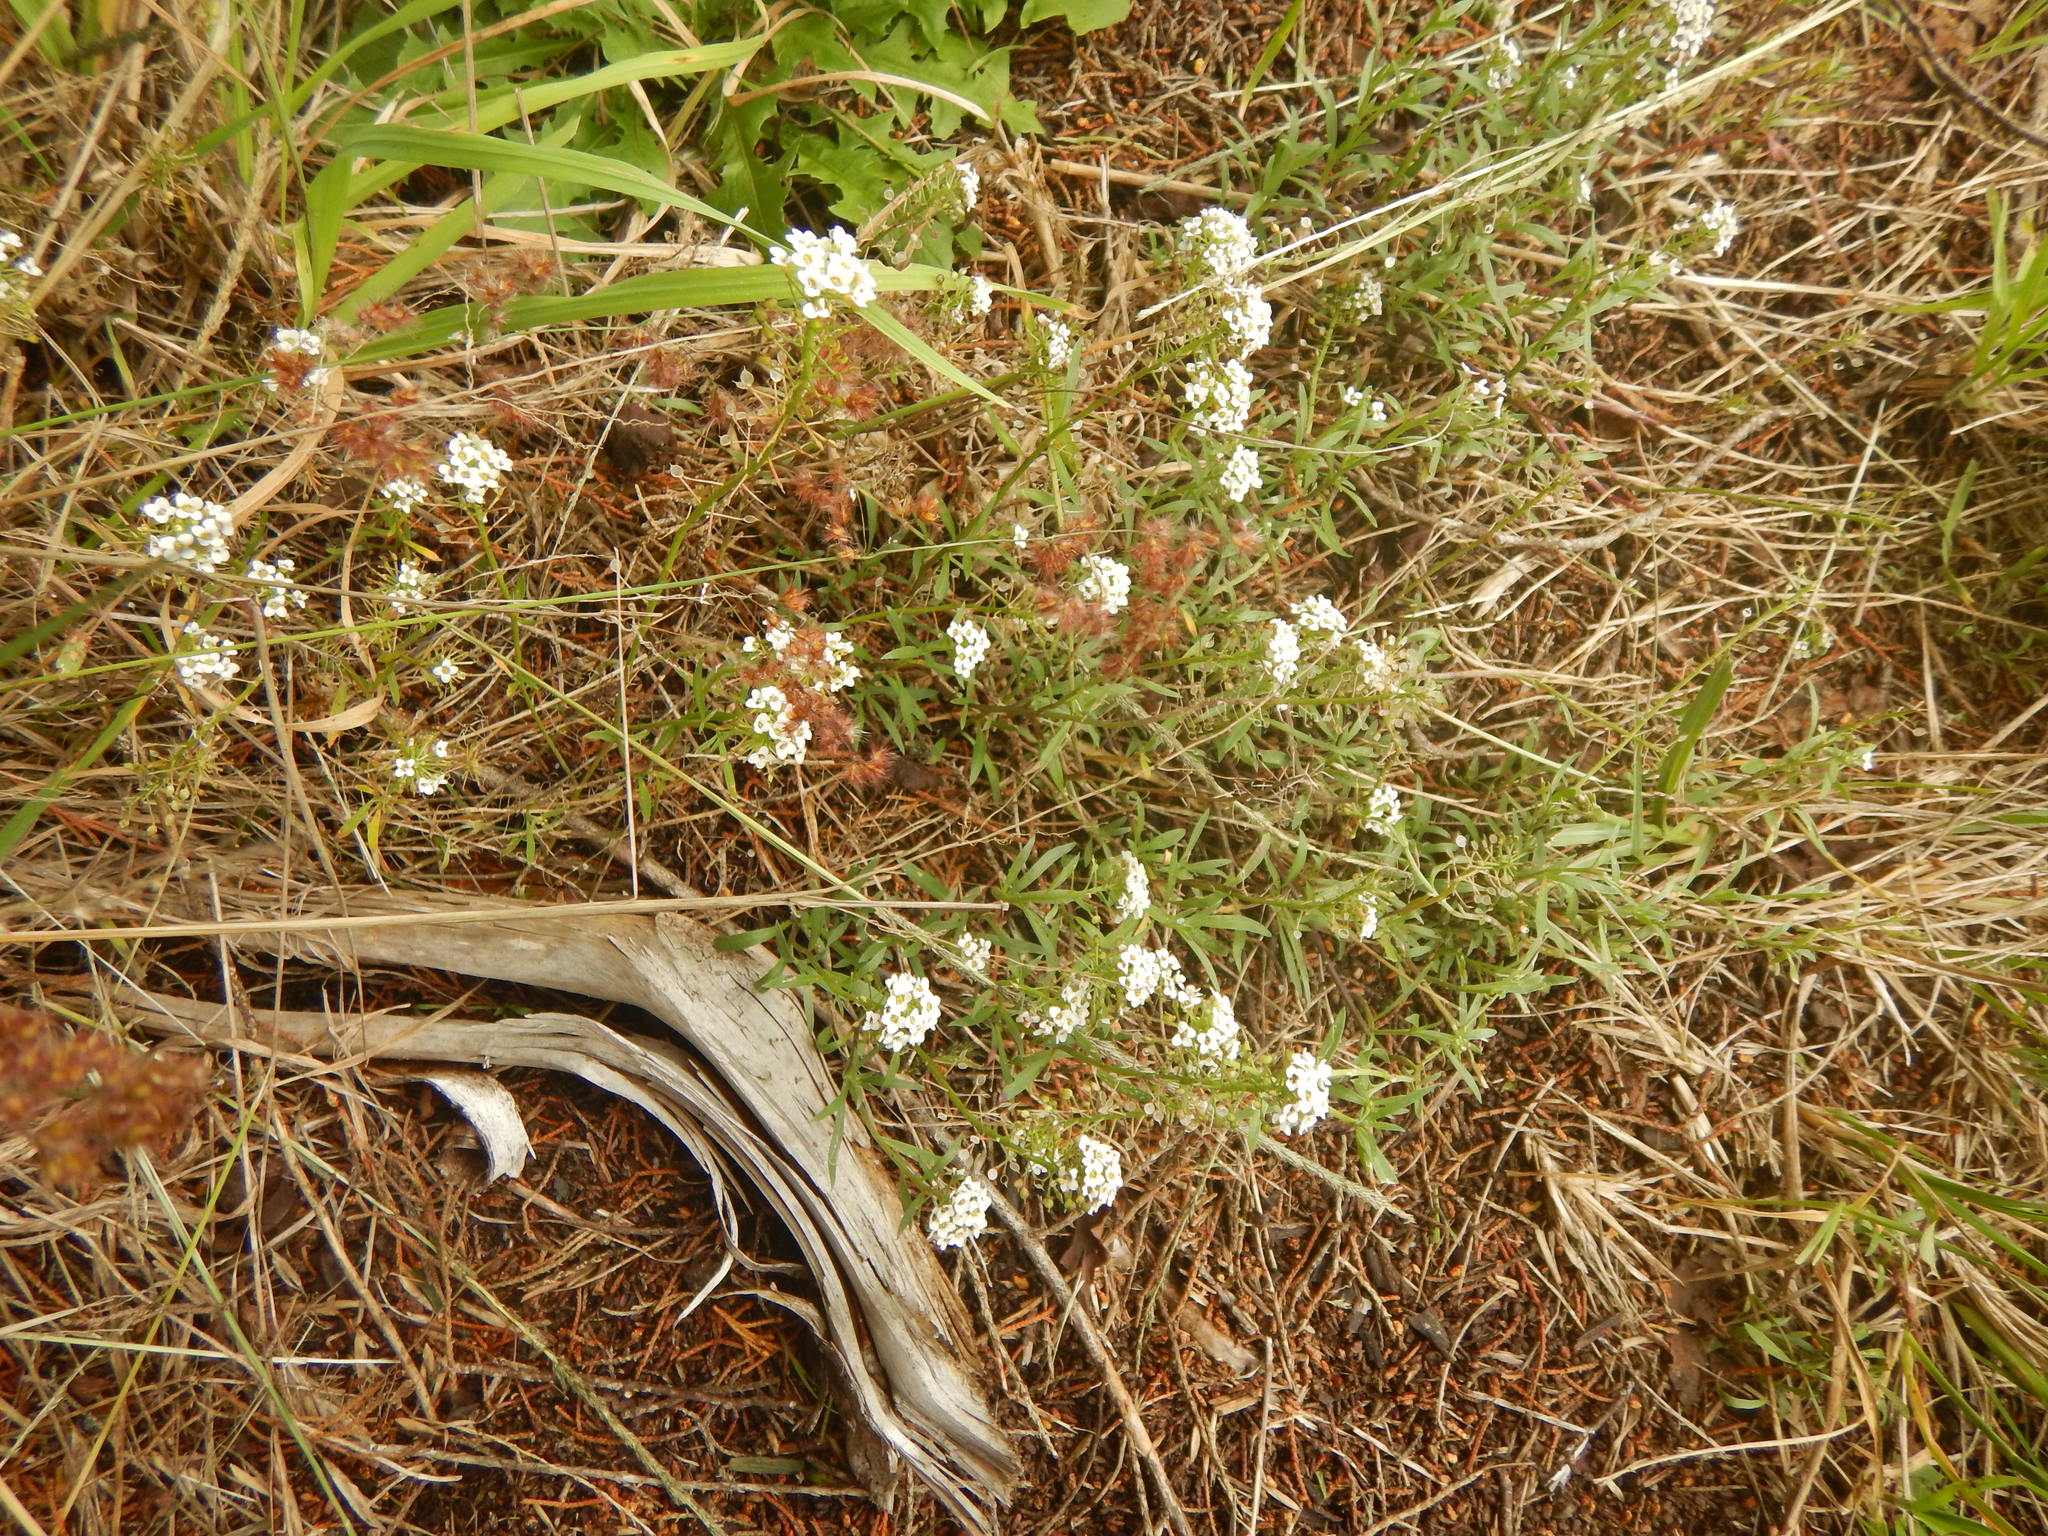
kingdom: Plantae
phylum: Tracheophyta
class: Magnoliopsida
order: Brassicales
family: Brassicaceae
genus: Lobularia
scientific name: Lobularia maritima
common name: Sweet alison
